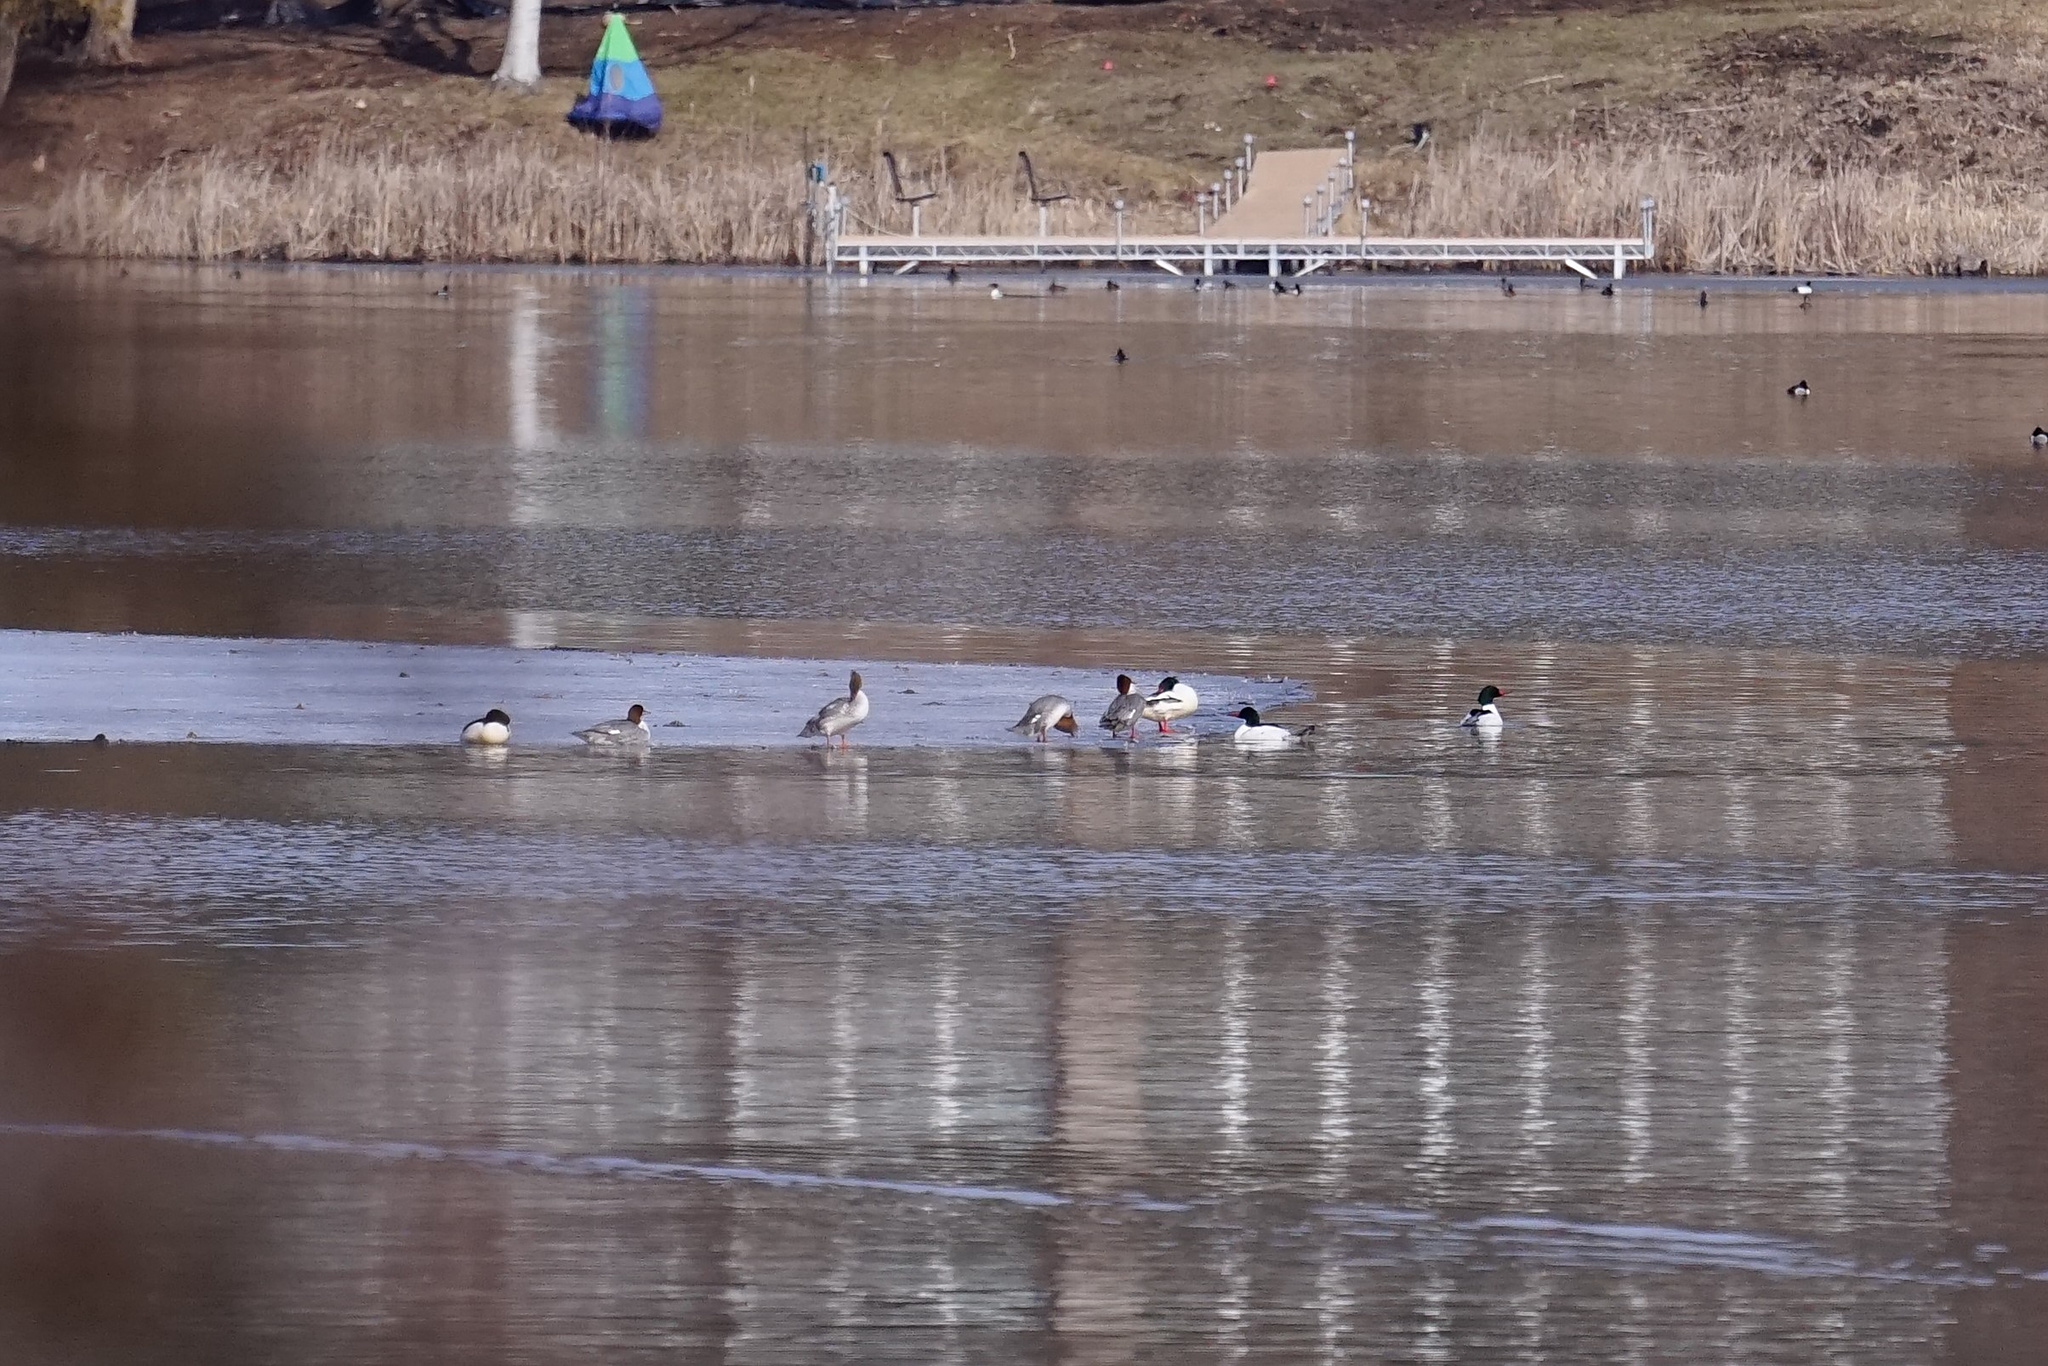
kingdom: Animalia
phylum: Chordata
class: Aves
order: Anseriformes
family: Anatidae
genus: Mergus
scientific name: Mergus merganser
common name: Common merganser
